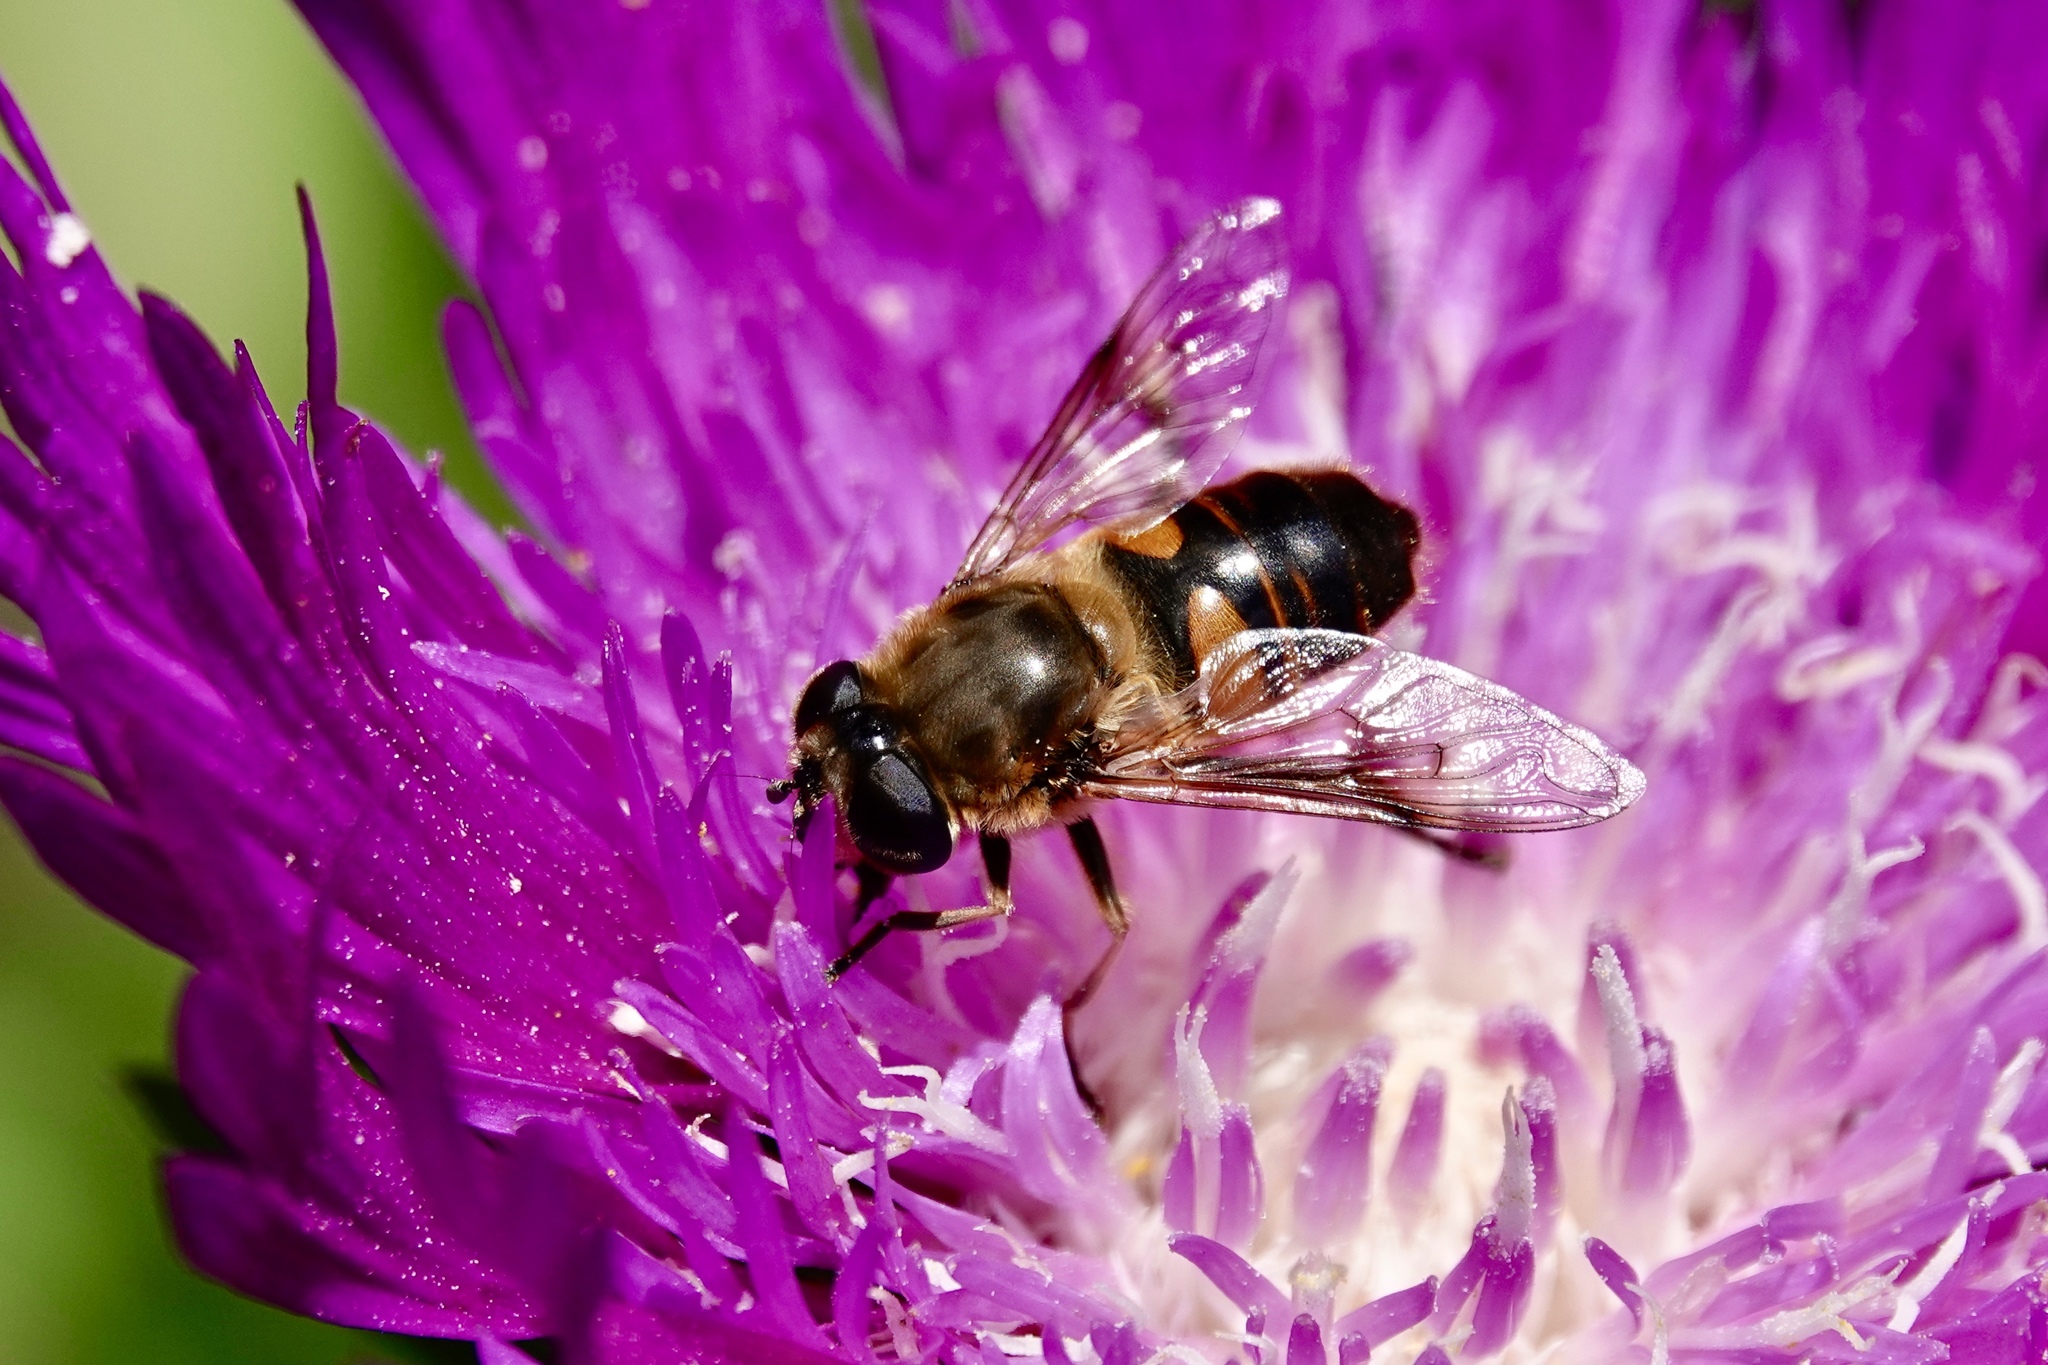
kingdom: Animalia
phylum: Arthropoda
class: Insecta
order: Diptera
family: Syrphidae
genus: Eristalis
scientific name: Eristalis tenax
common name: Drone fly
